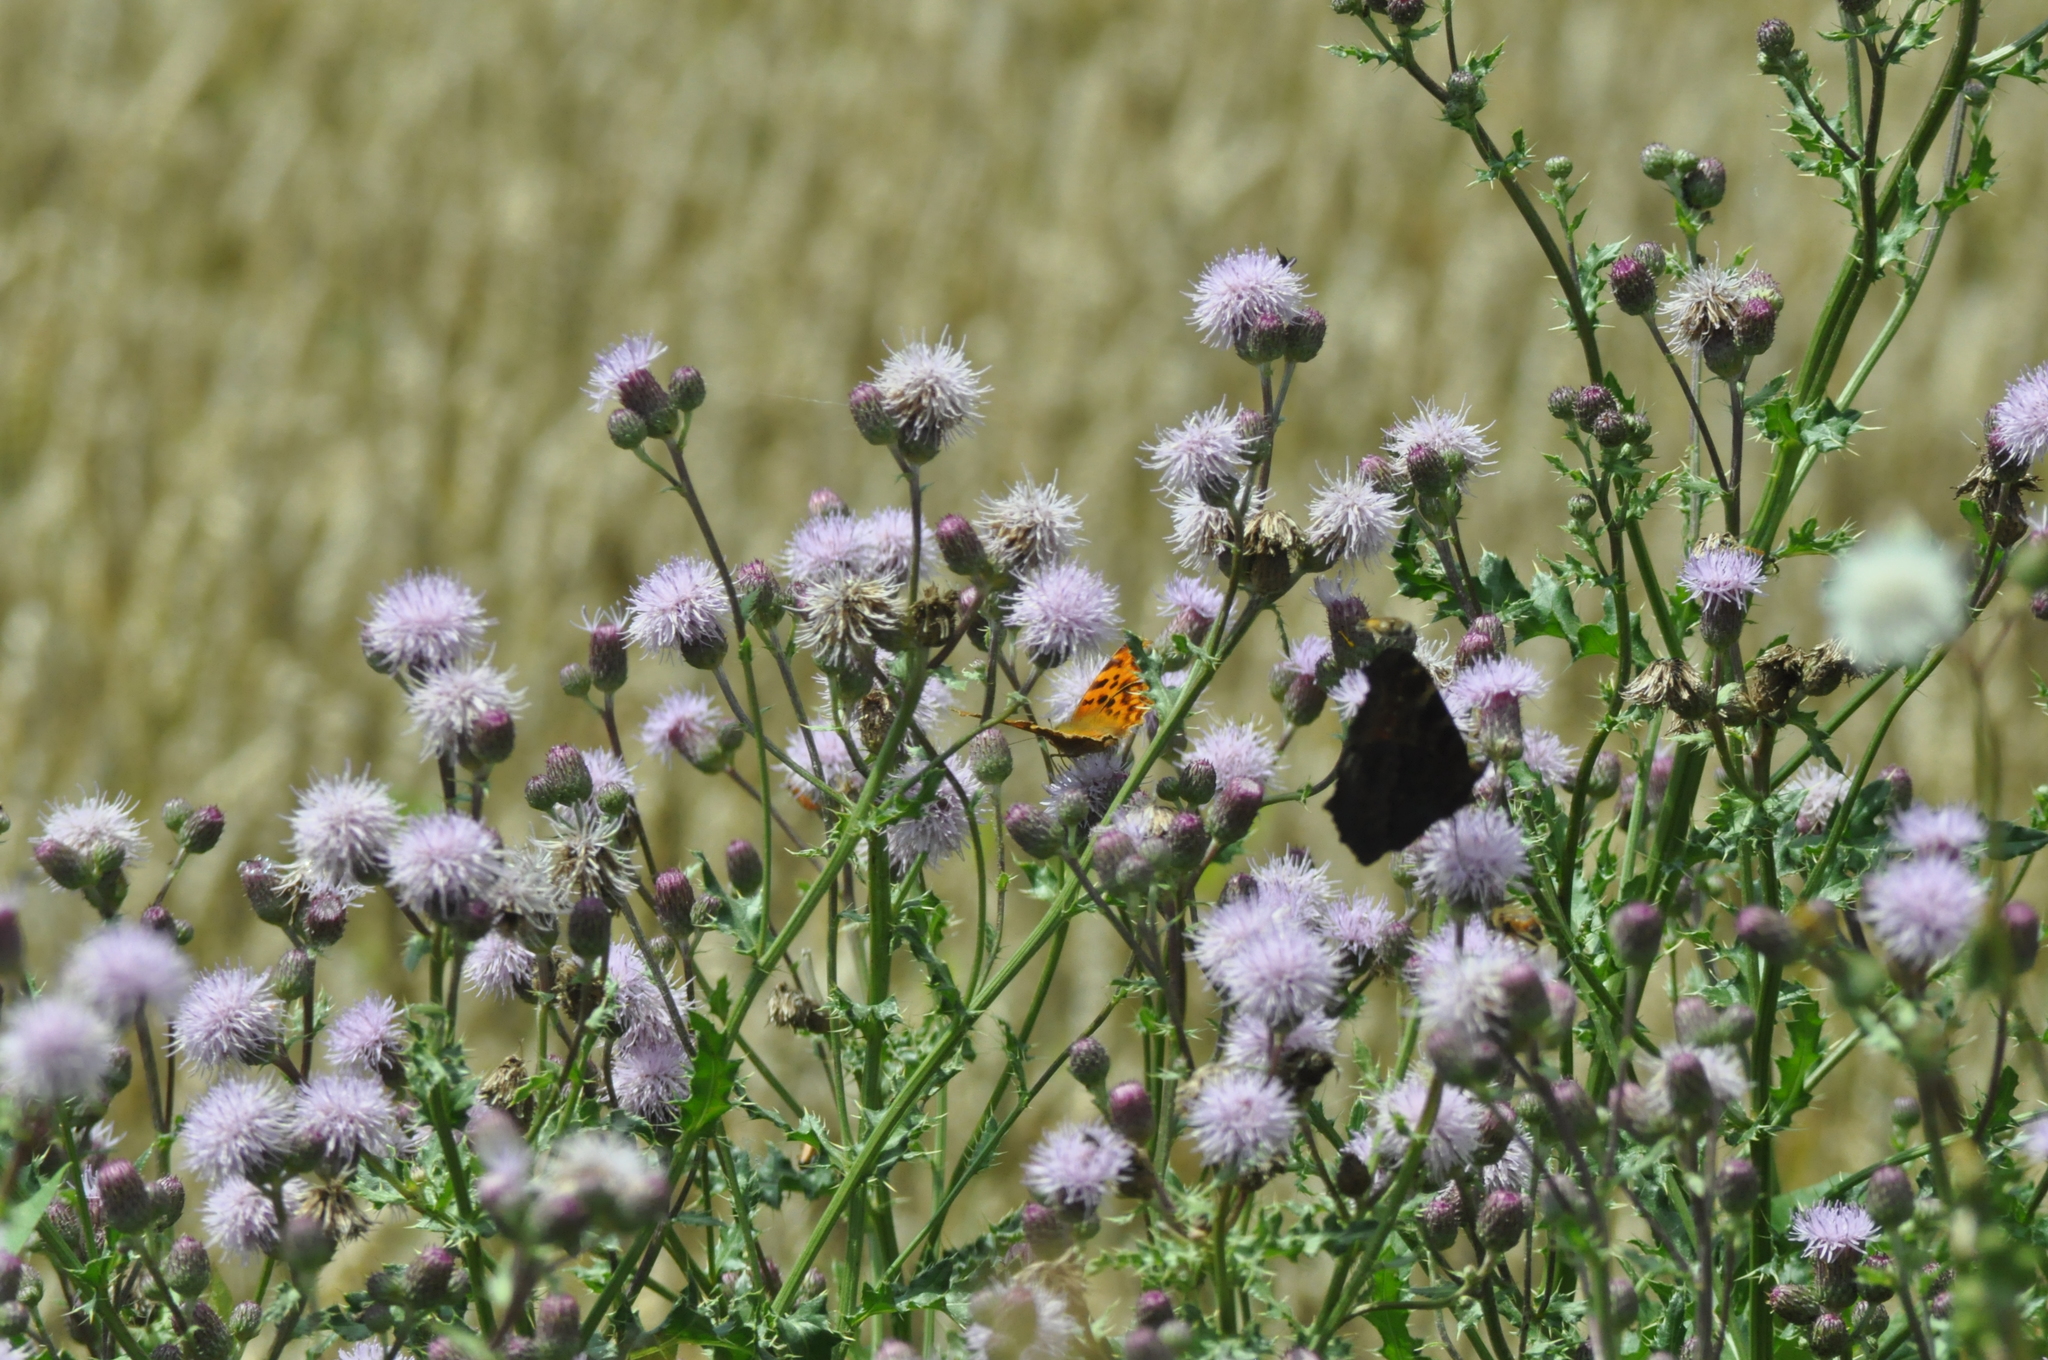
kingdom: Animalia
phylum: Arthropoda
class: Insecta
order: Lepidoptera
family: Nymphalidae
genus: Polygonia
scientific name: Polygonia c-album
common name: Comma
